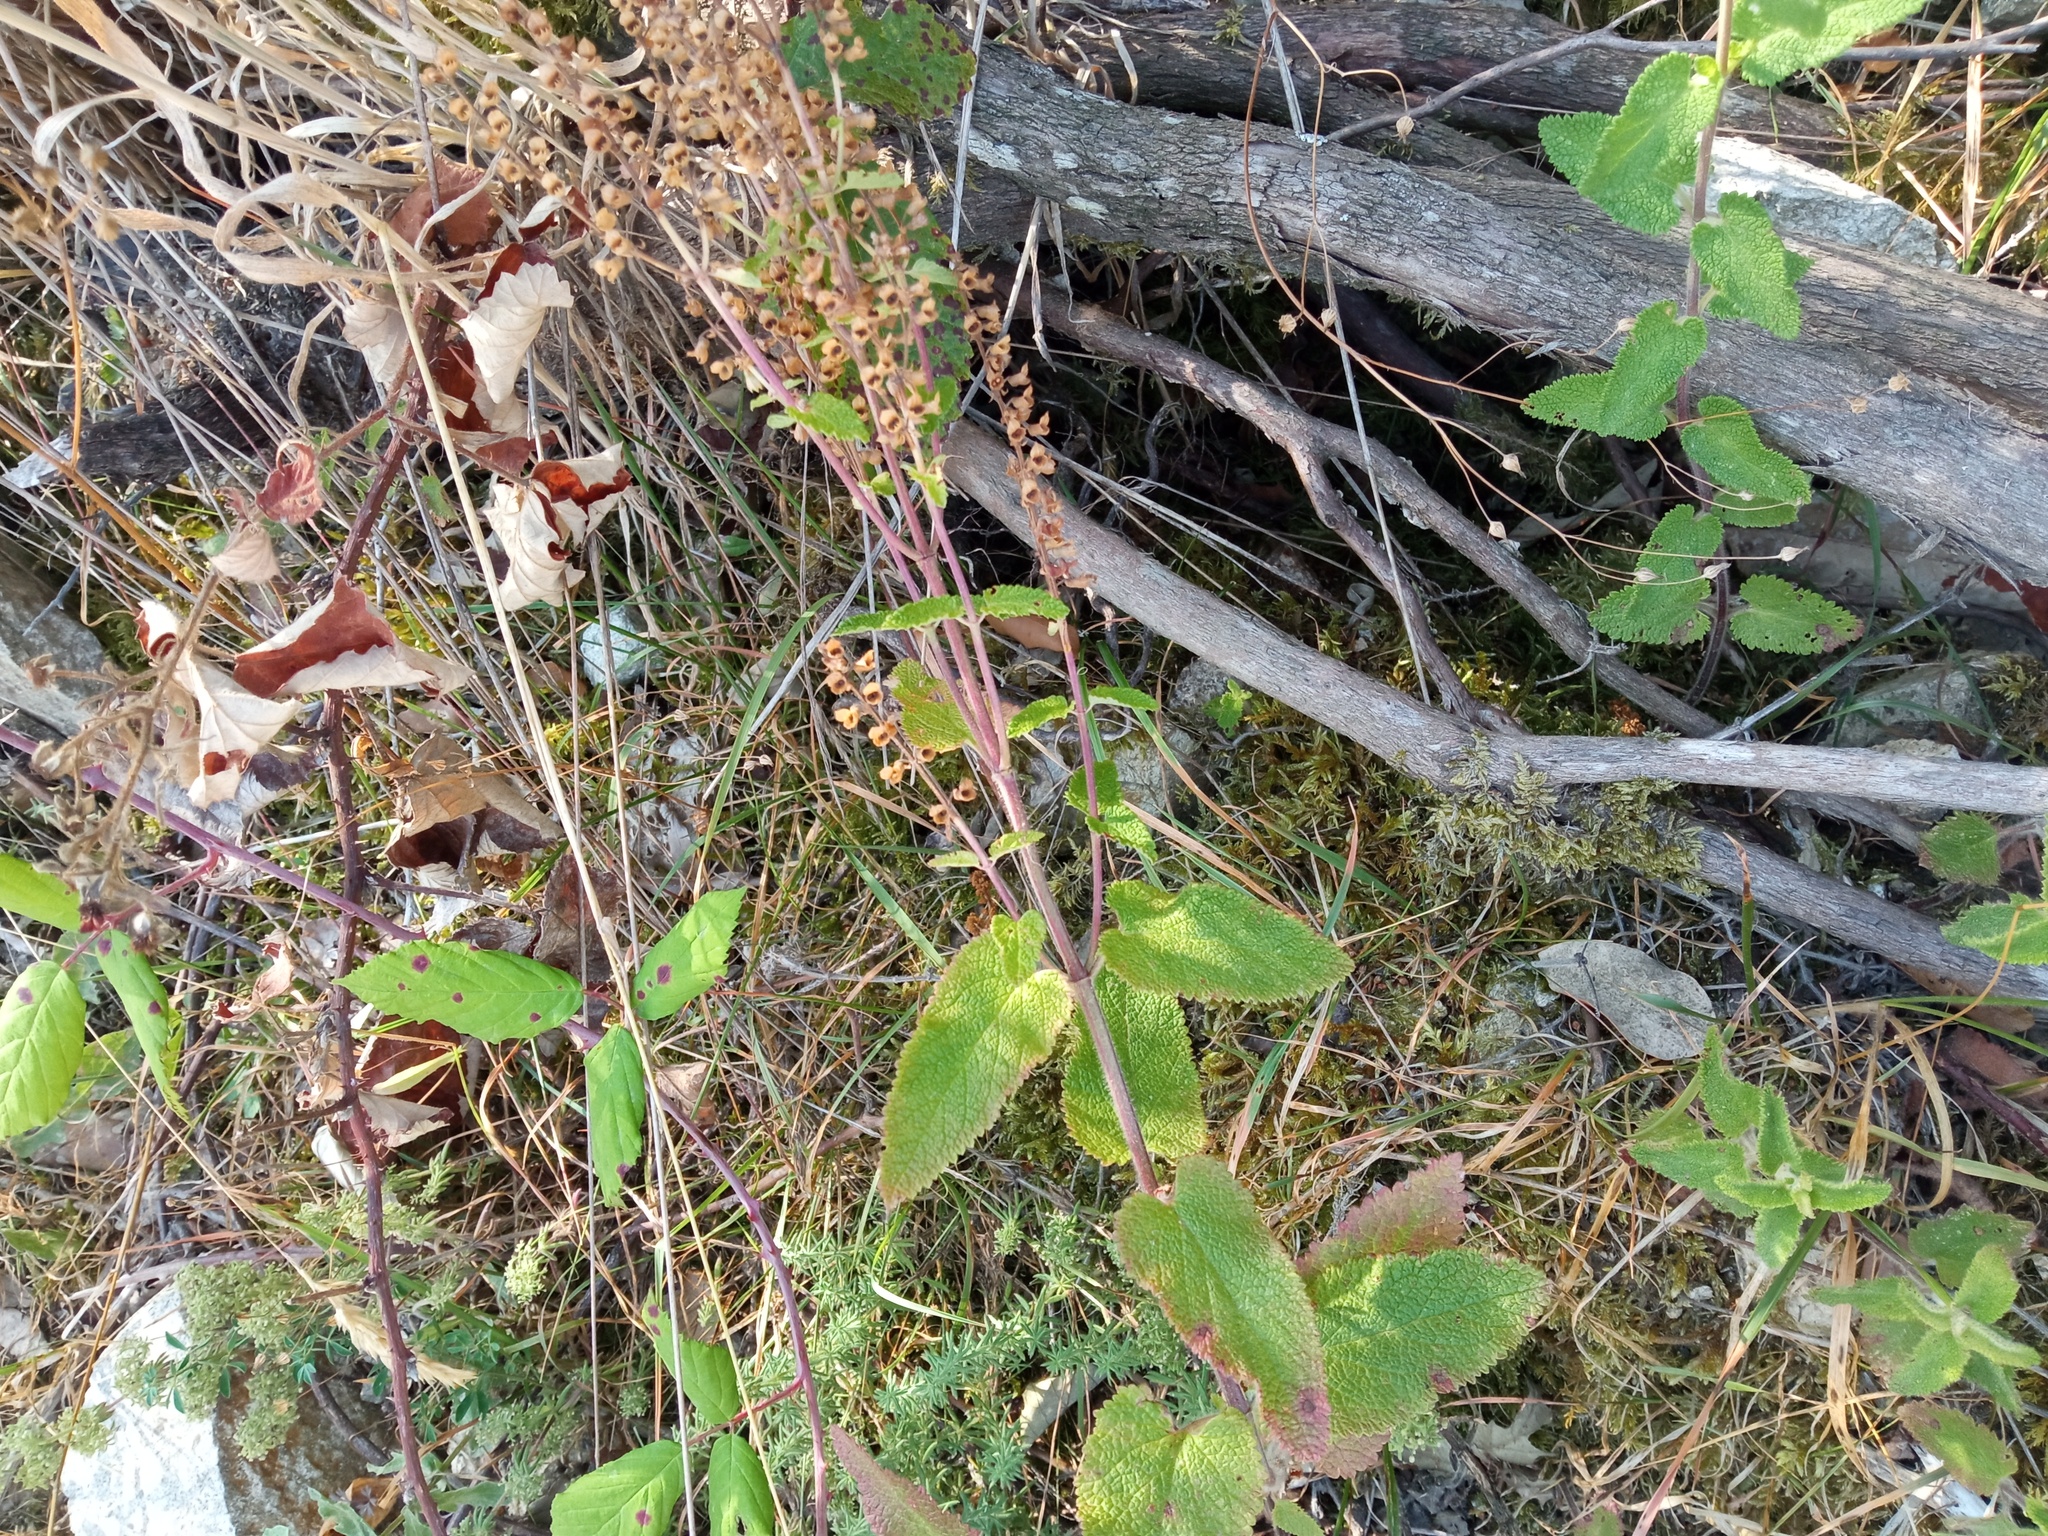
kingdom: Plantae
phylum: Tracheophyta
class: Magnoliopsida
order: Lamiales
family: Lamiaceae
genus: Teucrium
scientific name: Teucrium scorodonia
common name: Woodland germander
